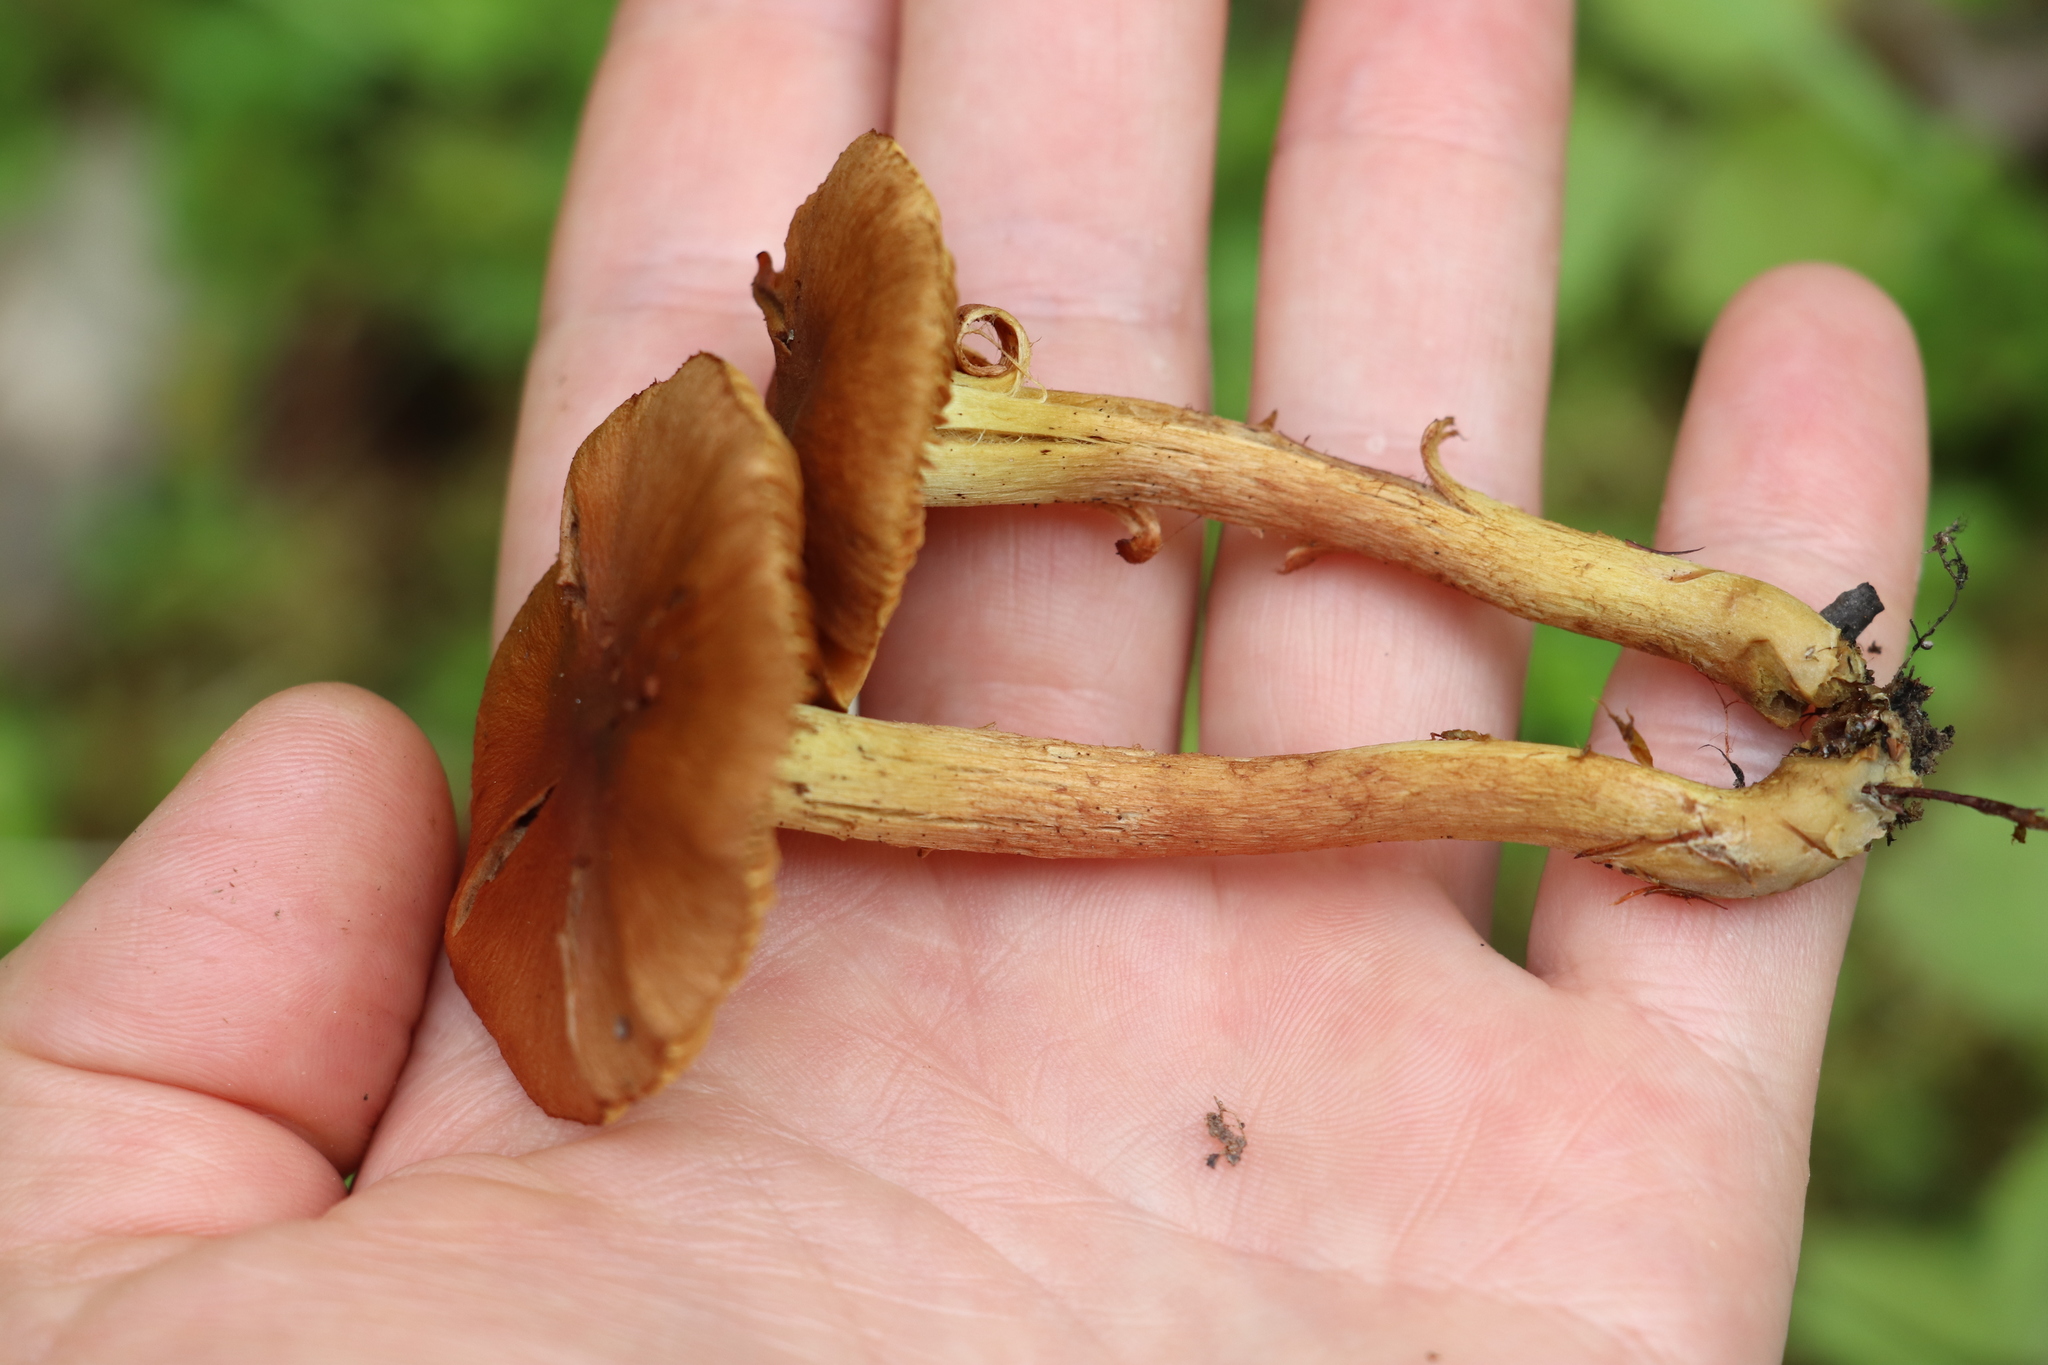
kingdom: Fungi
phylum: Basidiomycota
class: Agaricomycetes
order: Agaricales
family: Cortinariaceae
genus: Cortinarius
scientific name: Cortinarius cinnamomeus
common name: Cinnamon webcap
